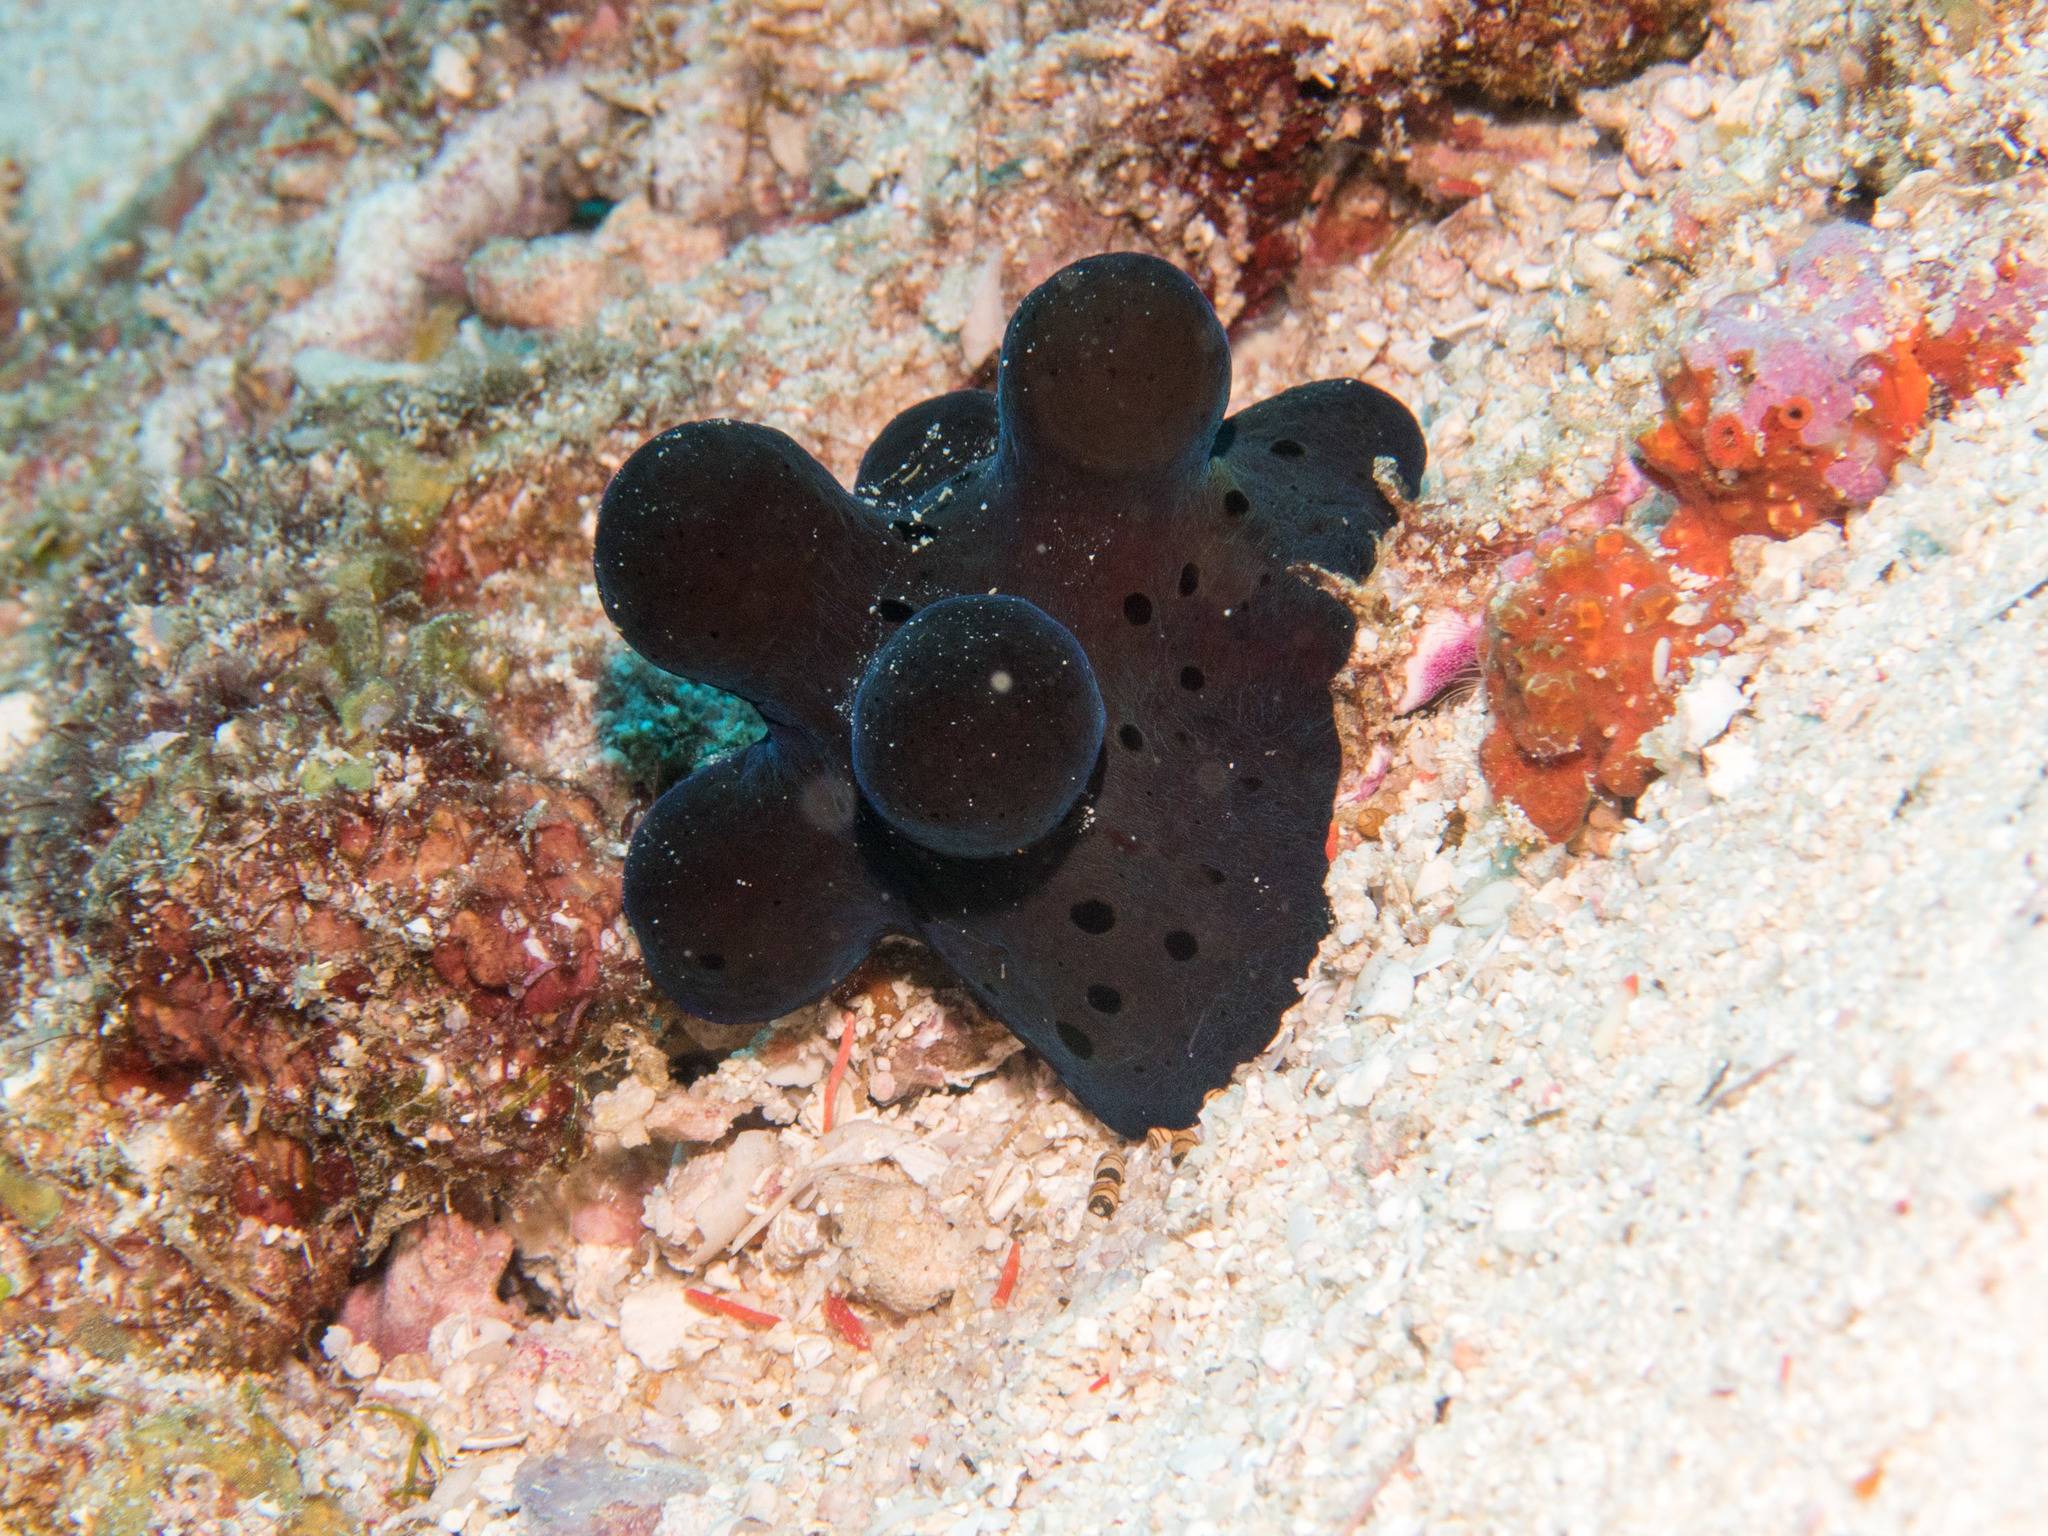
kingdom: Animalia
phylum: Mollusca
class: Gastropoda
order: Littorinimorpha
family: Velutinidae
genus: Coriocella
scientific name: Coriocella hibyae
